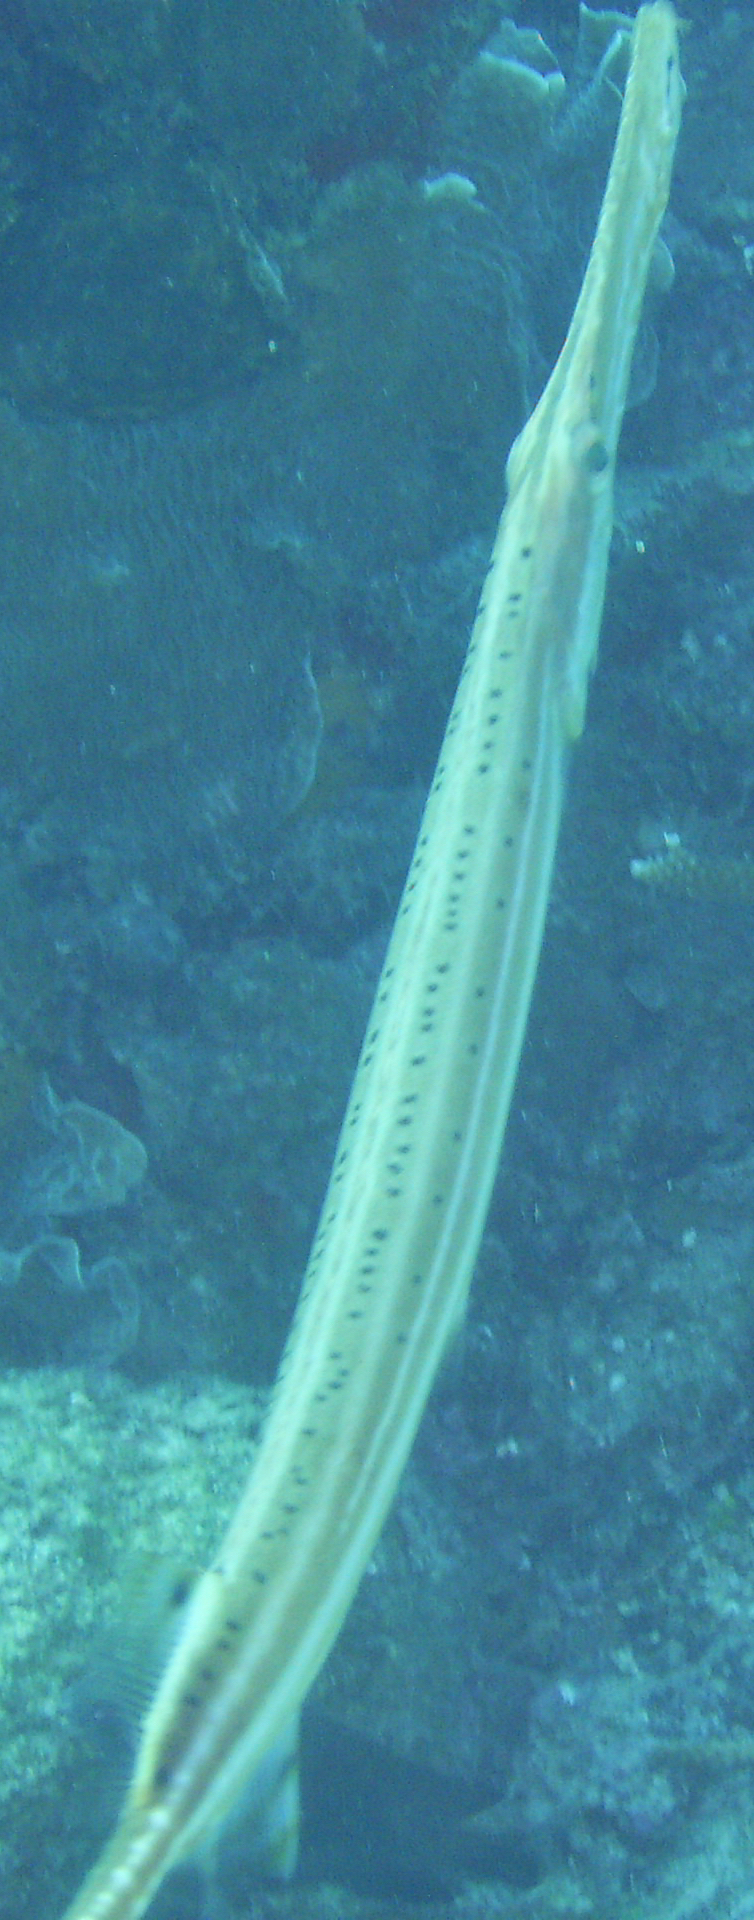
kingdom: Animalia
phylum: Chordata
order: Syngnathiformes
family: Aulostomidae
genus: Aulostomus
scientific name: Aulostomus maculatus
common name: West atlantic trumpetfish
